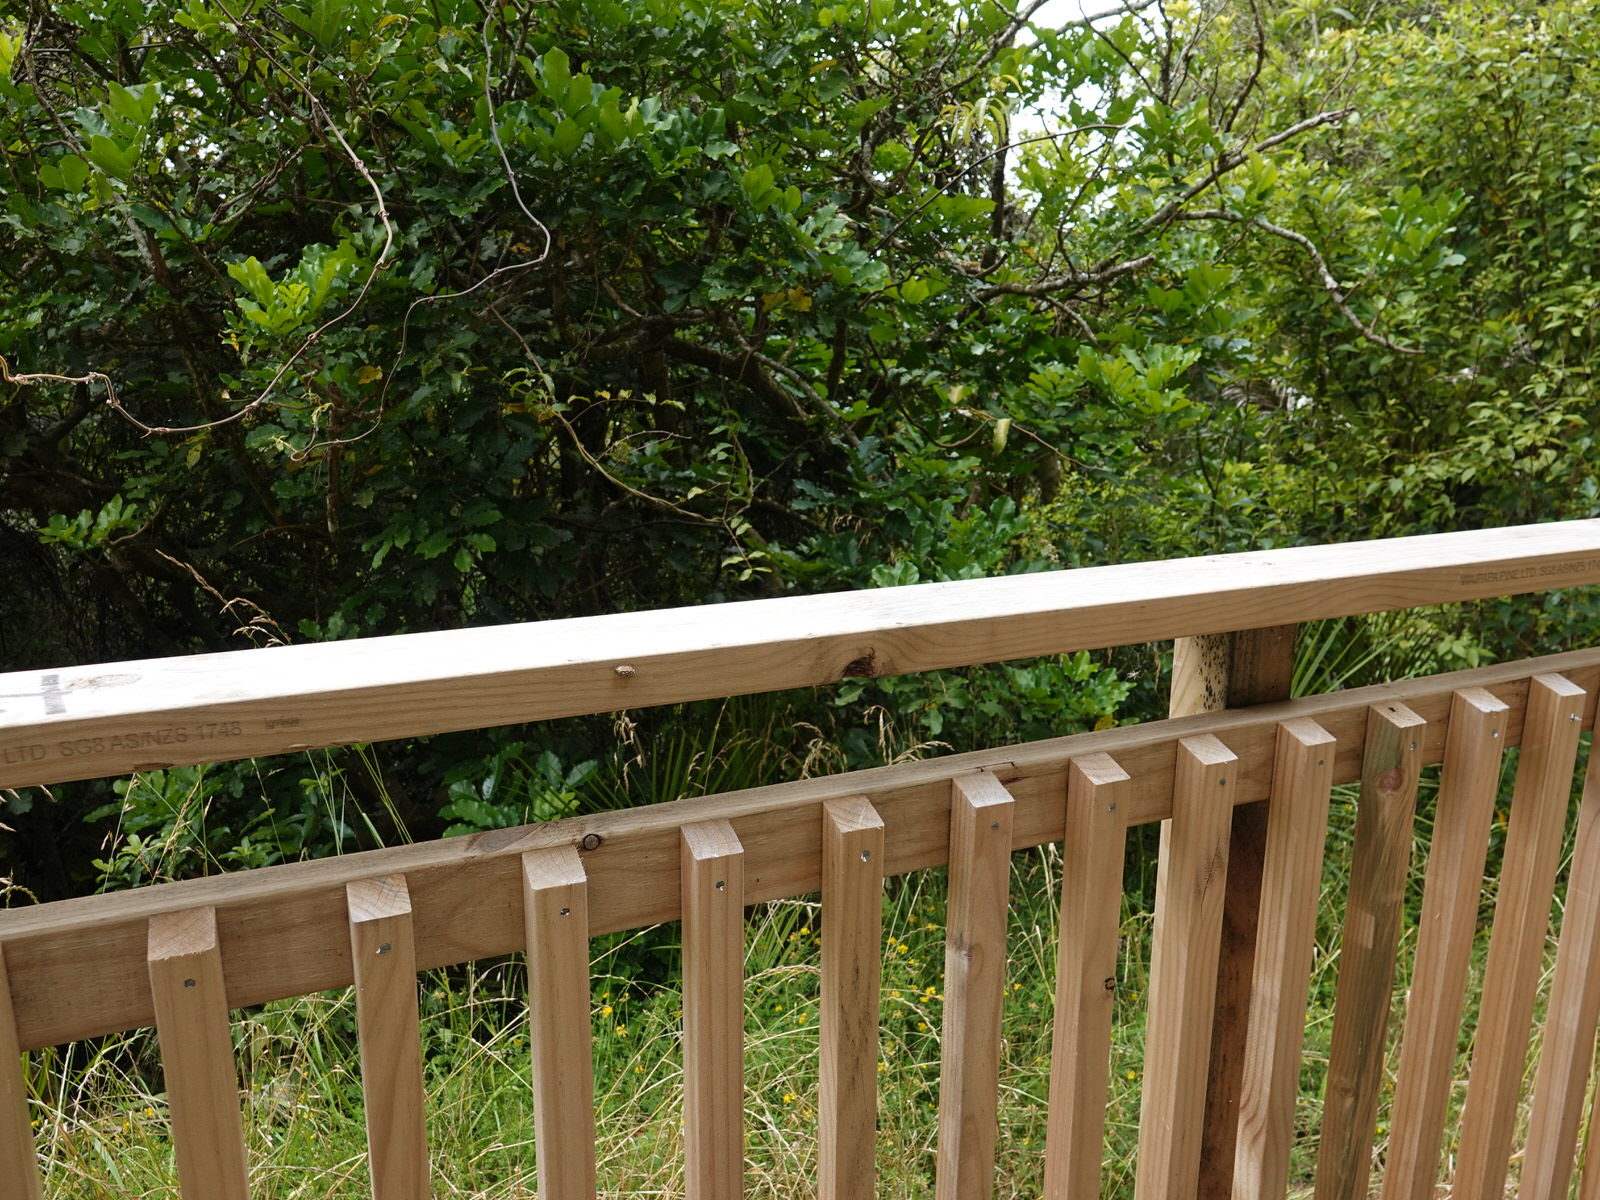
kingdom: Animalia
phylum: Arthropoda
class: Insecta
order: Mantodea
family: Mantidae
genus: Orthodera
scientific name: Orthodera novaezealandiae
